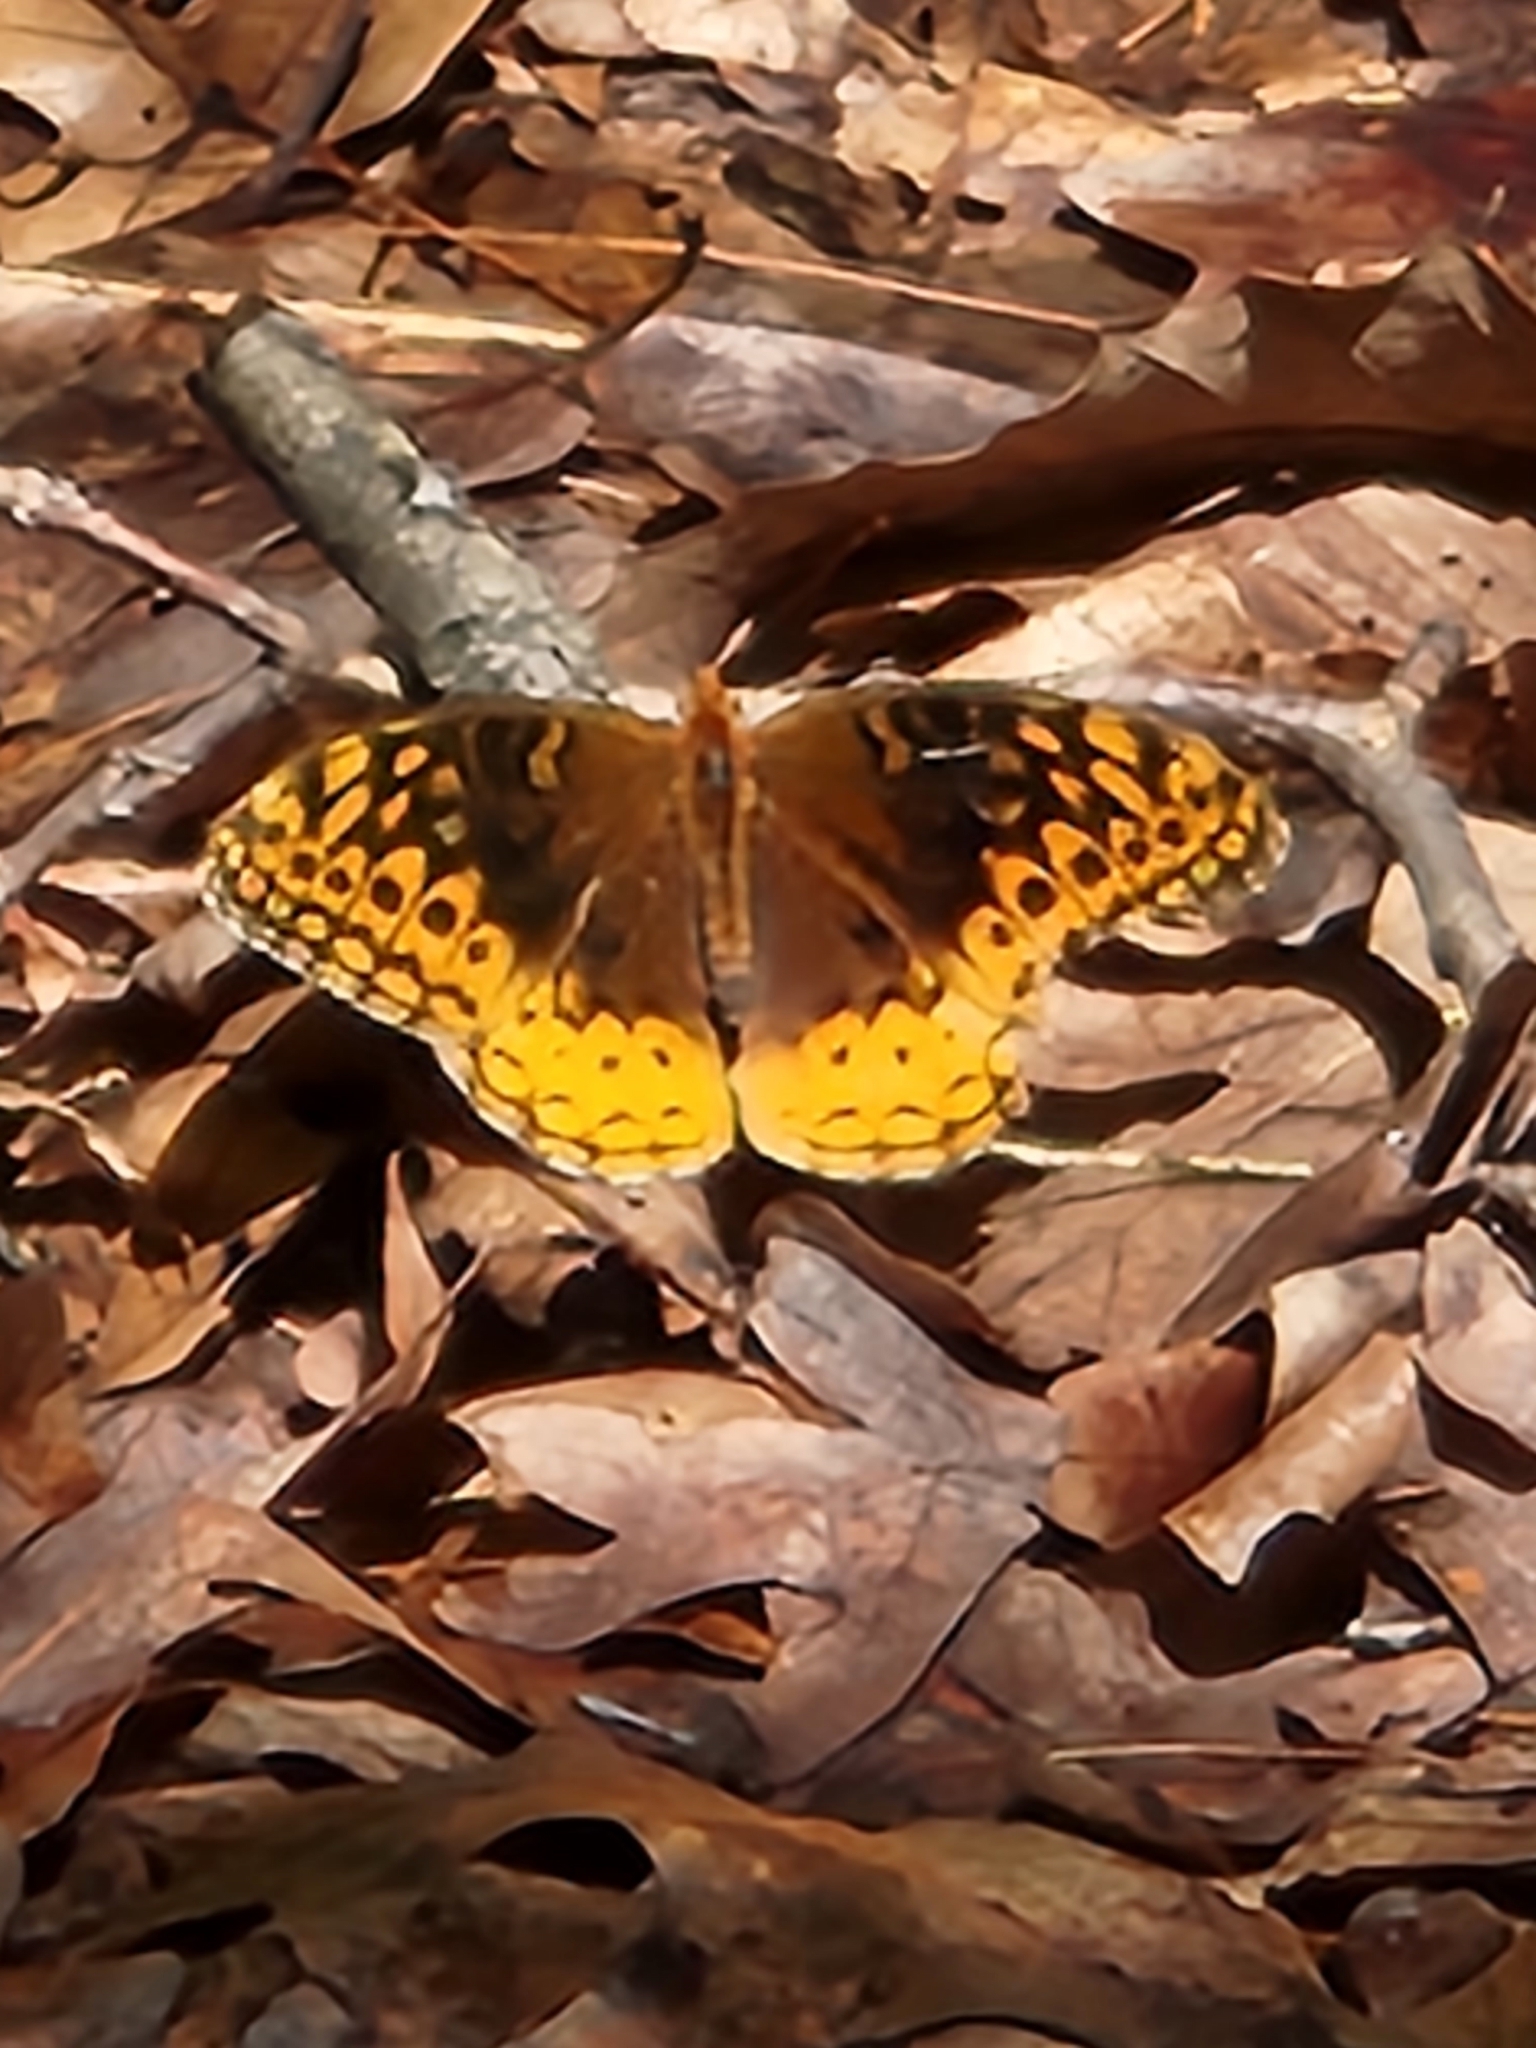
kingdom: Animalia
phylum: Arthropoda
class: Insecta
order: Lepidoptera
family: Nymphalidae
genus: Speyeria
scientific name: Speyeria cybele
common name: Great spangled fritillary
